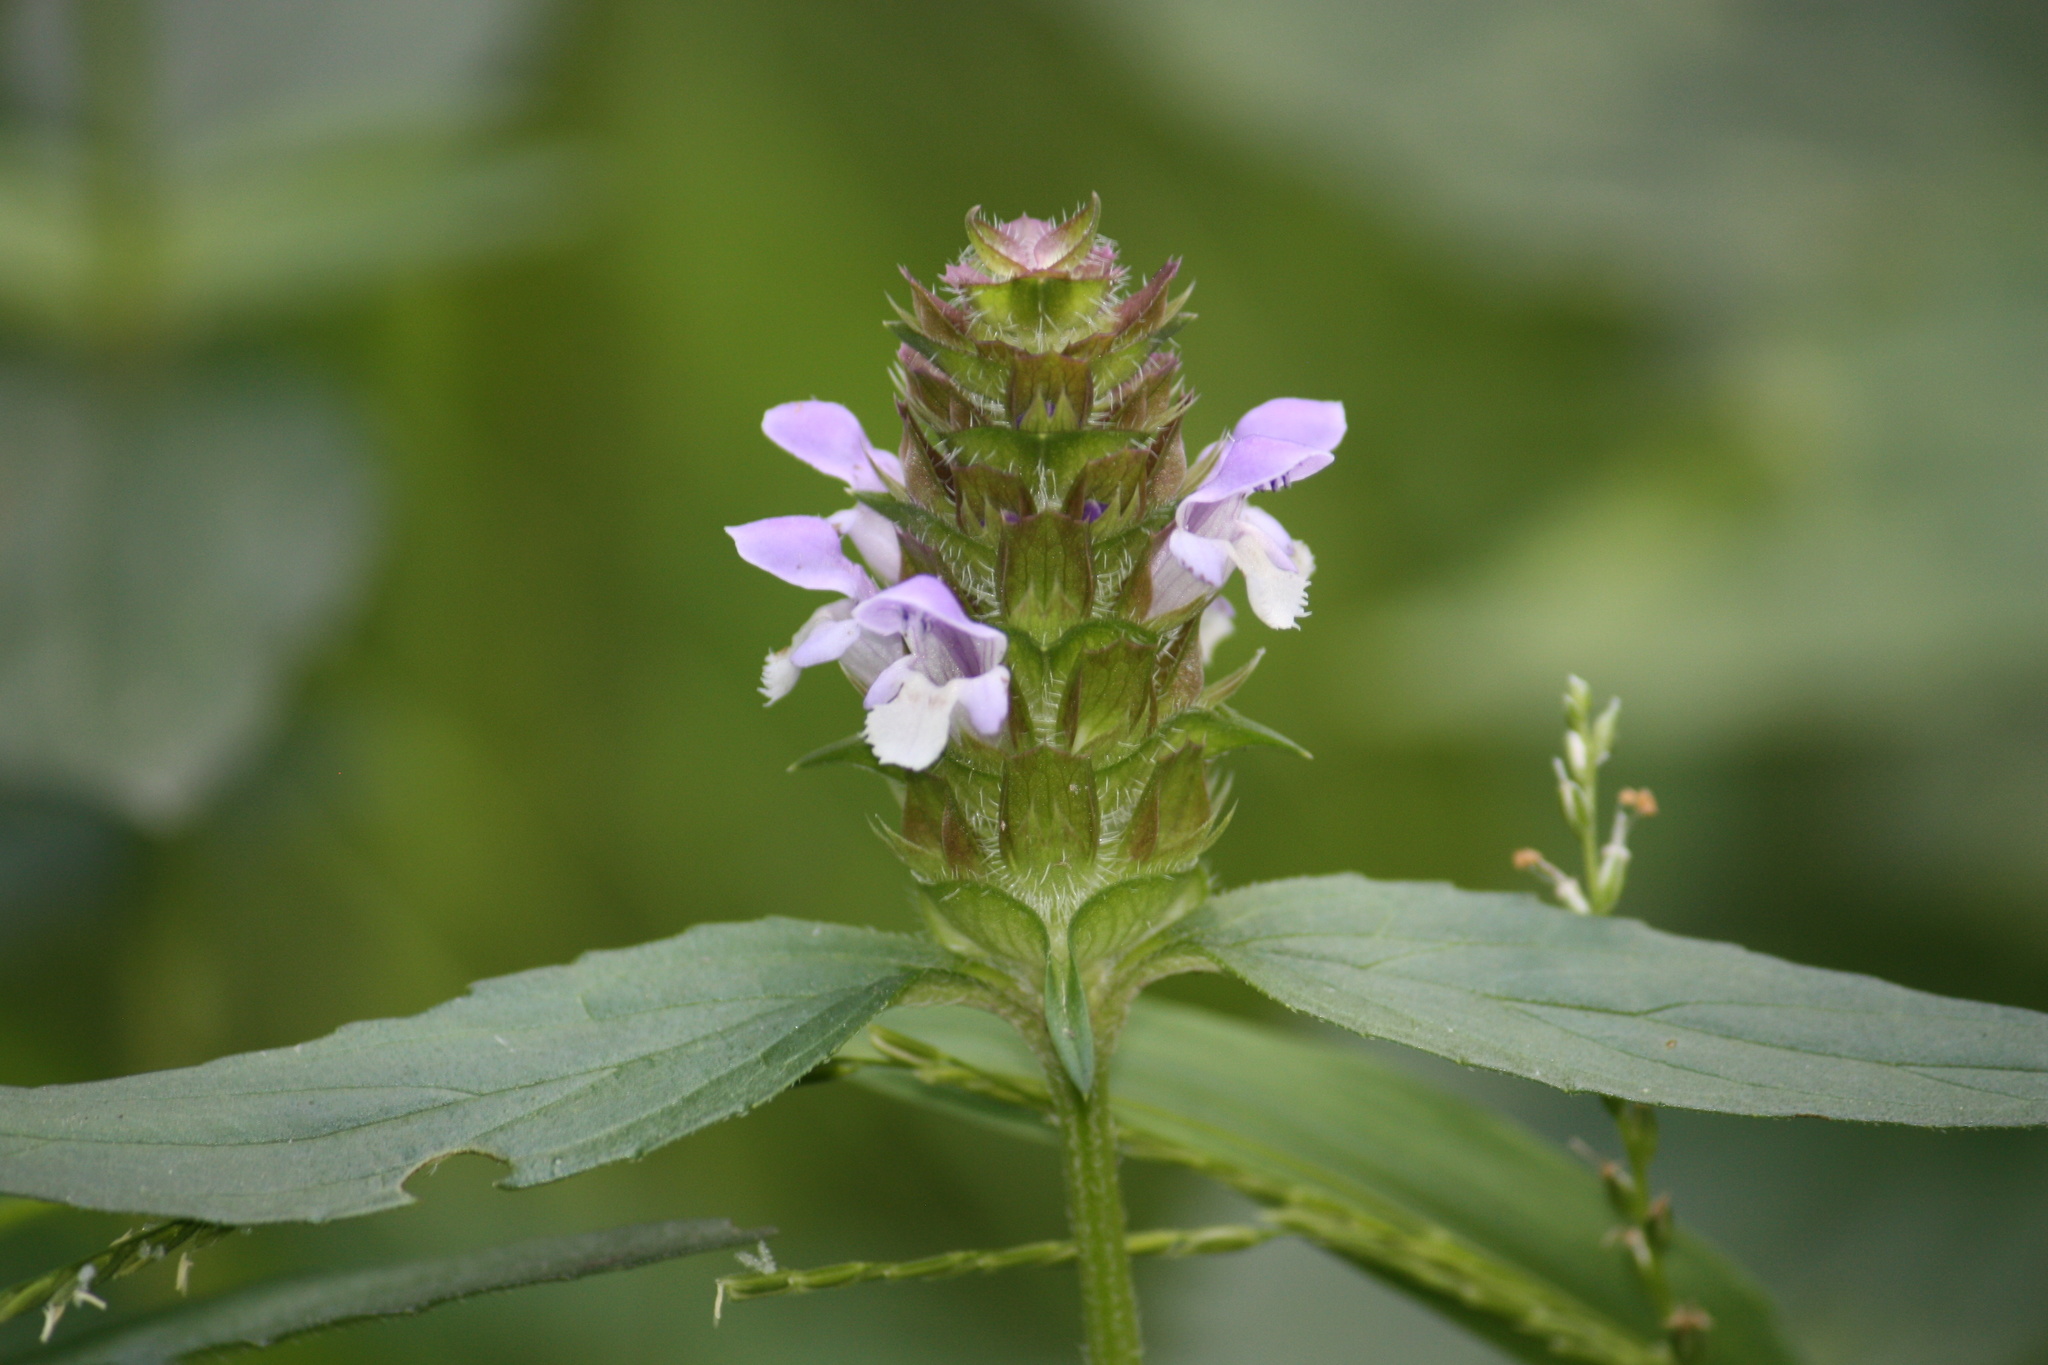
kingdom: Plantae
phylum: Tracheophyta
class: Magnoliopsida
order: Lamiales
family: Lamiaceae
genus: Prunella
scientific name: Prunella vulgaris
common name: Heal-all
